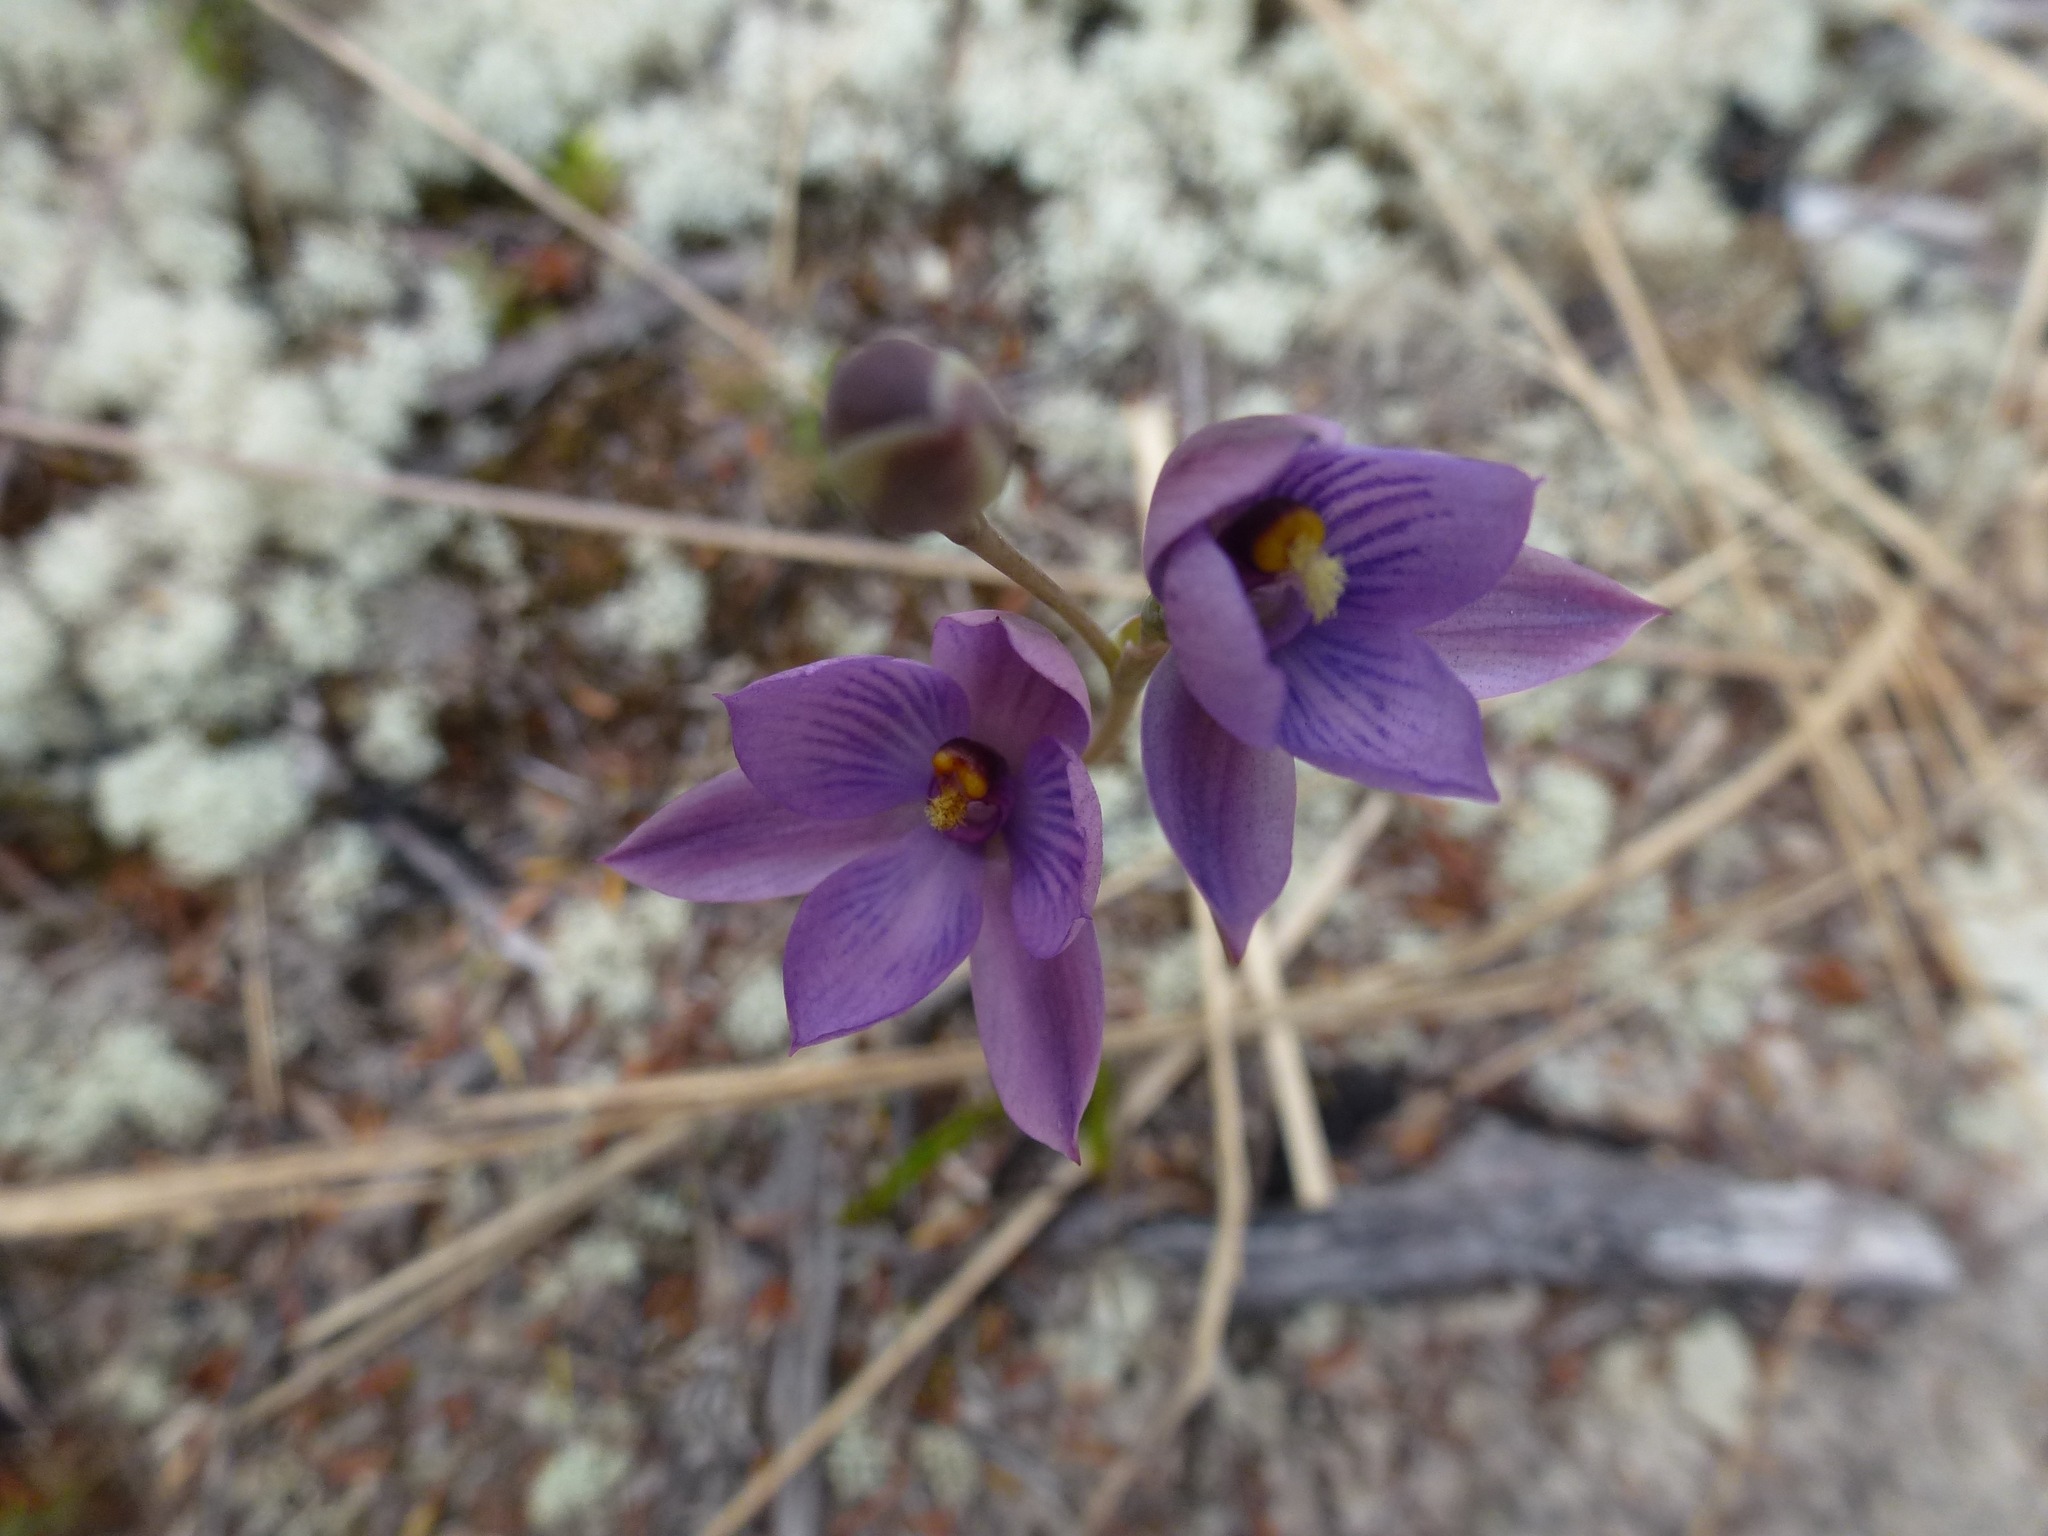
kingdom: Plantae
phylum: Tracheophyta
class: Liliopsida
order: Asparagales
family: Orchidaceae
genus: Thelymitra
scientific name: Thelymitra dentata
